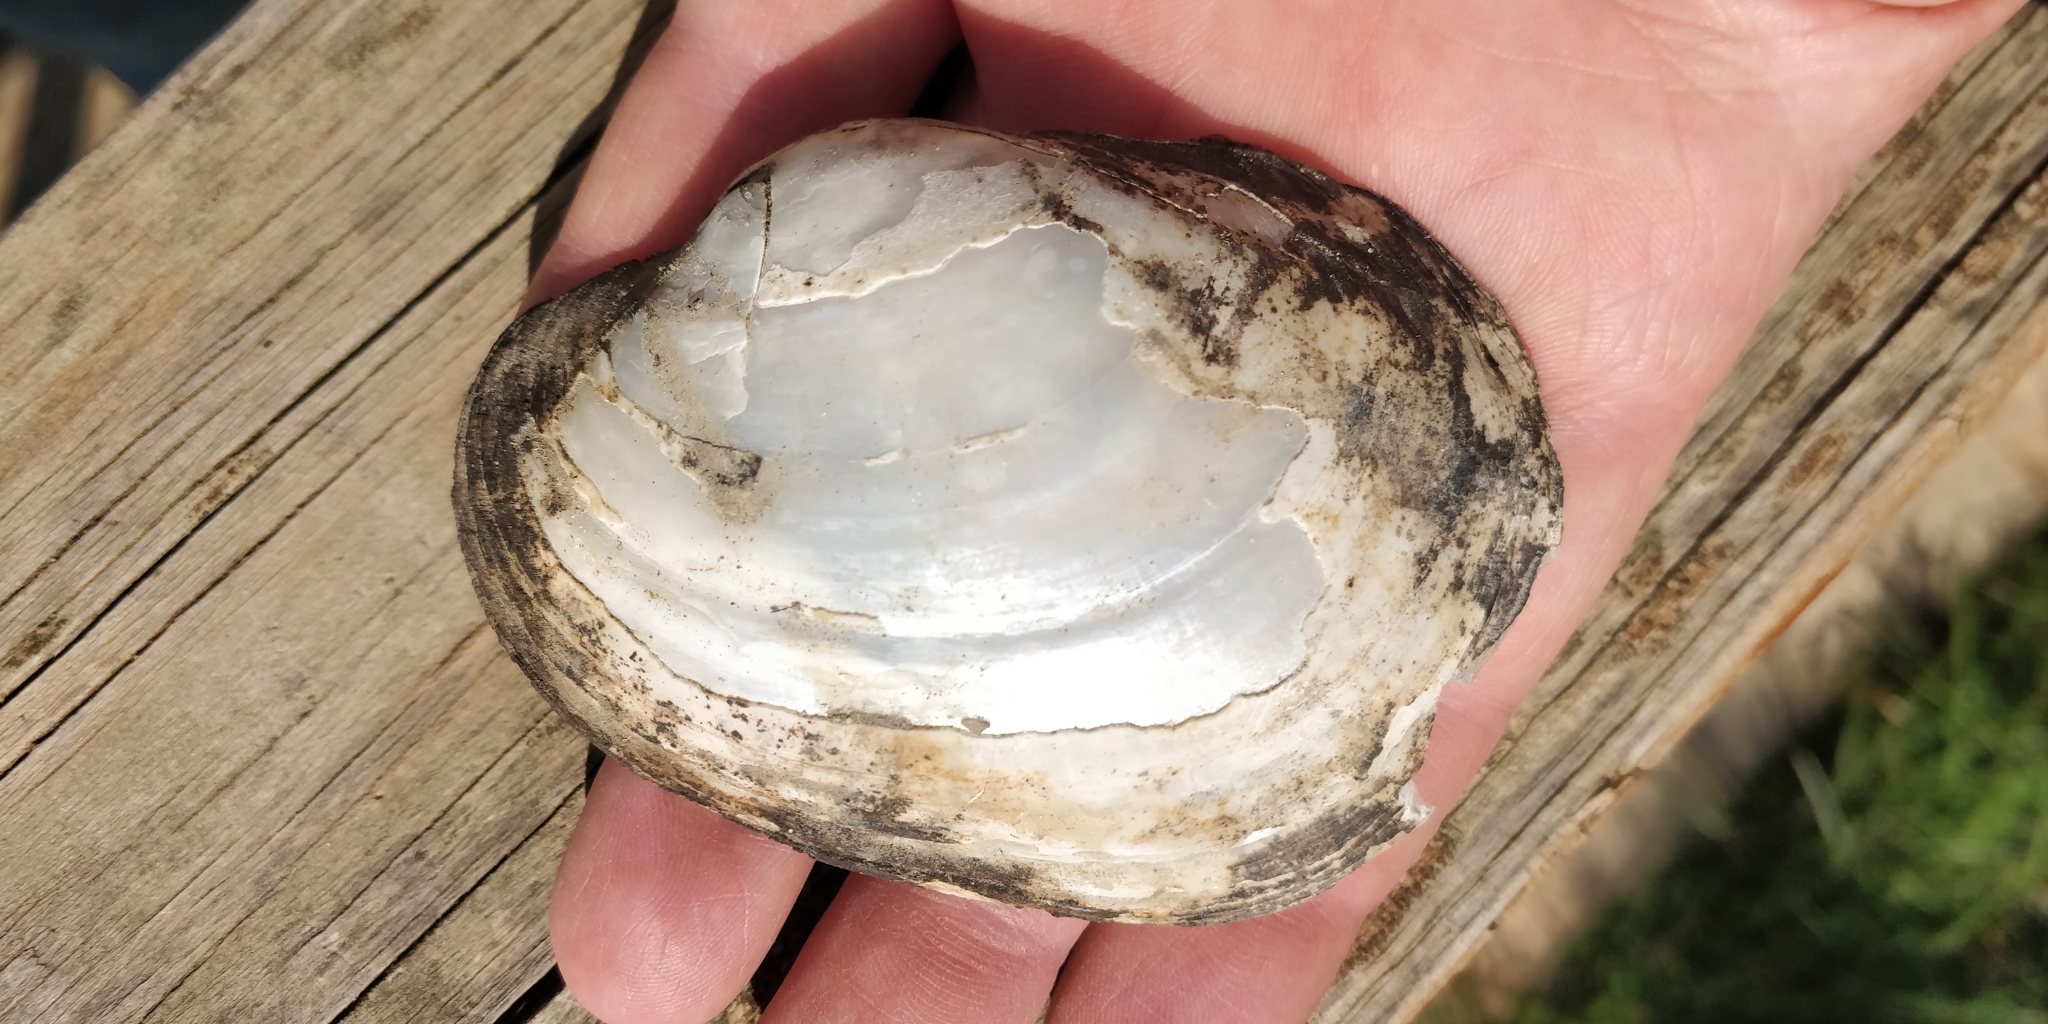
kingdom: Animalia
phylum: Mollusca
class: Bivalvia
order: Unionida
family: Unionidae
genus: Lampsilis
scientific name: Lampsilis cardium
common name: Plain pocketbook
